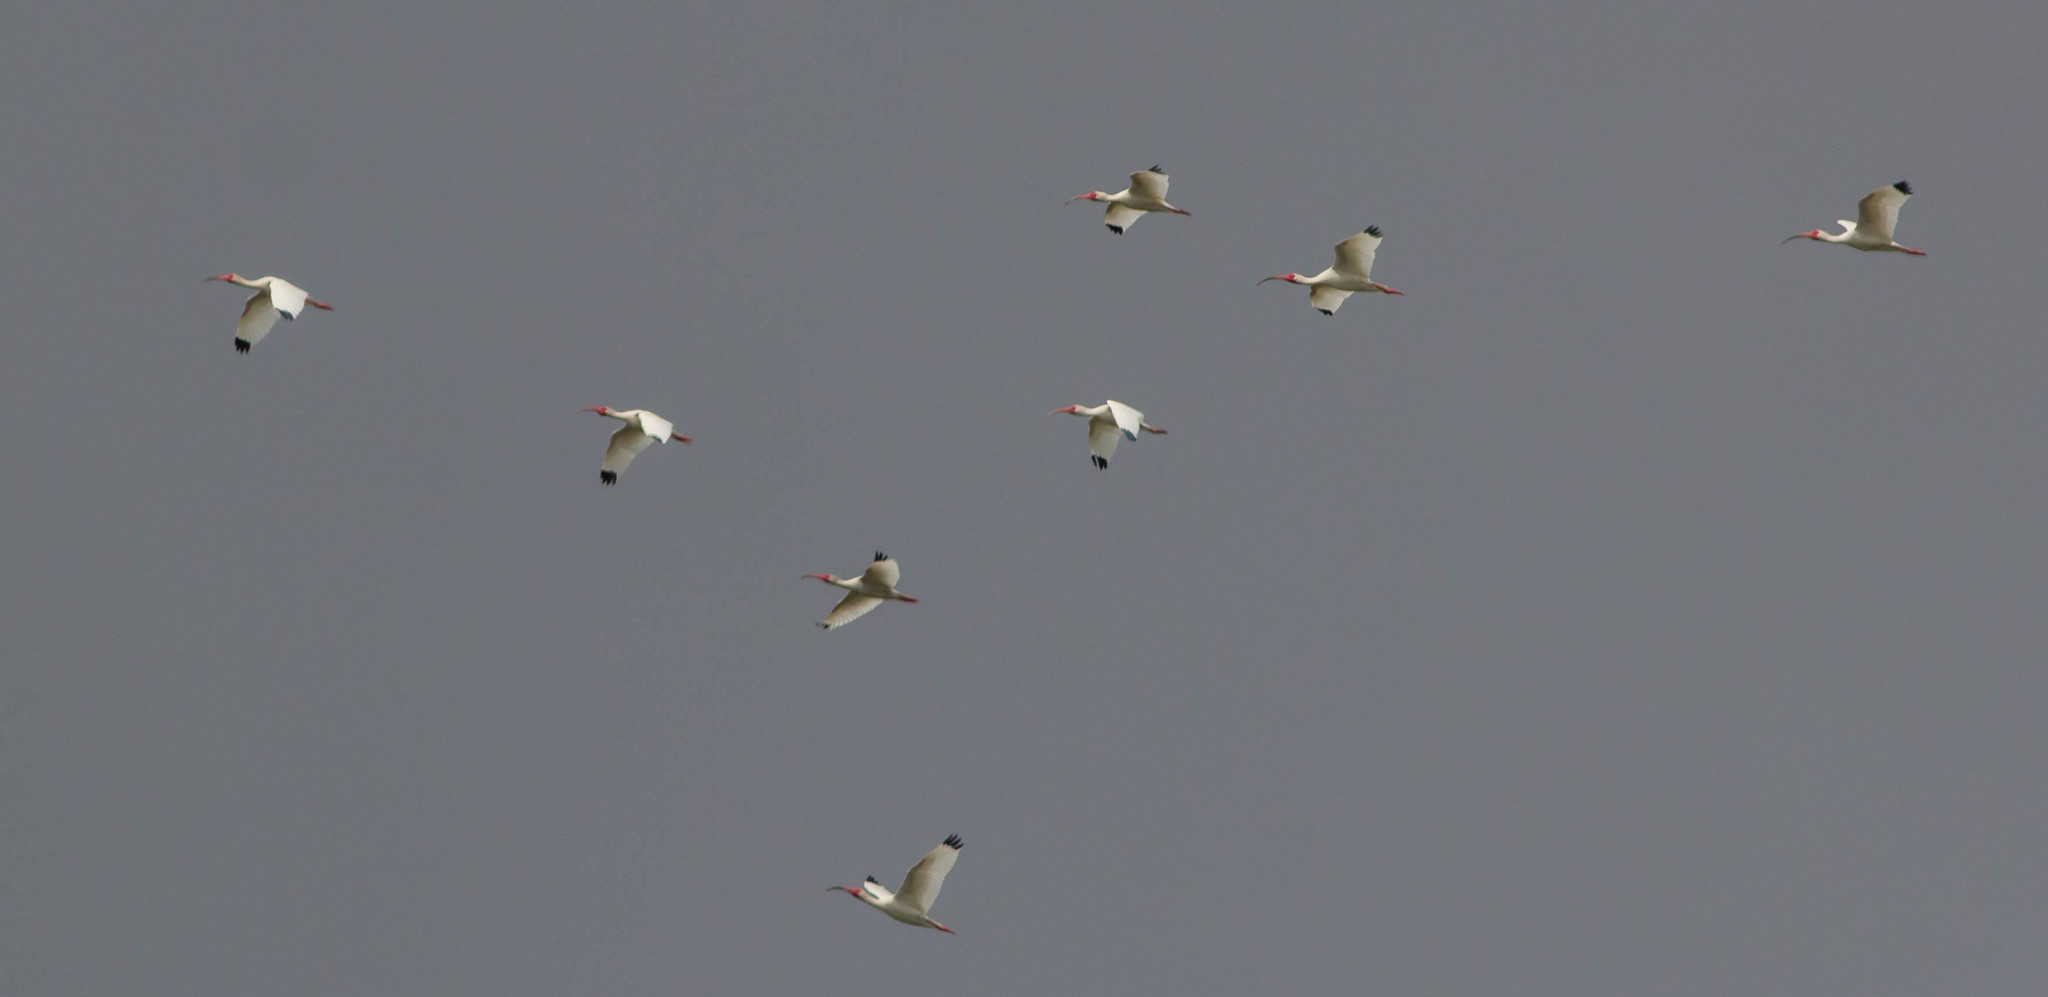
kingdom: Animalia
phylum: Chordata
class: Aves
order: Pelecaniformes
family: Threskiornithidae
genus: Eudocimus
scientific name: Eudocimus albus
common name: White ibis
